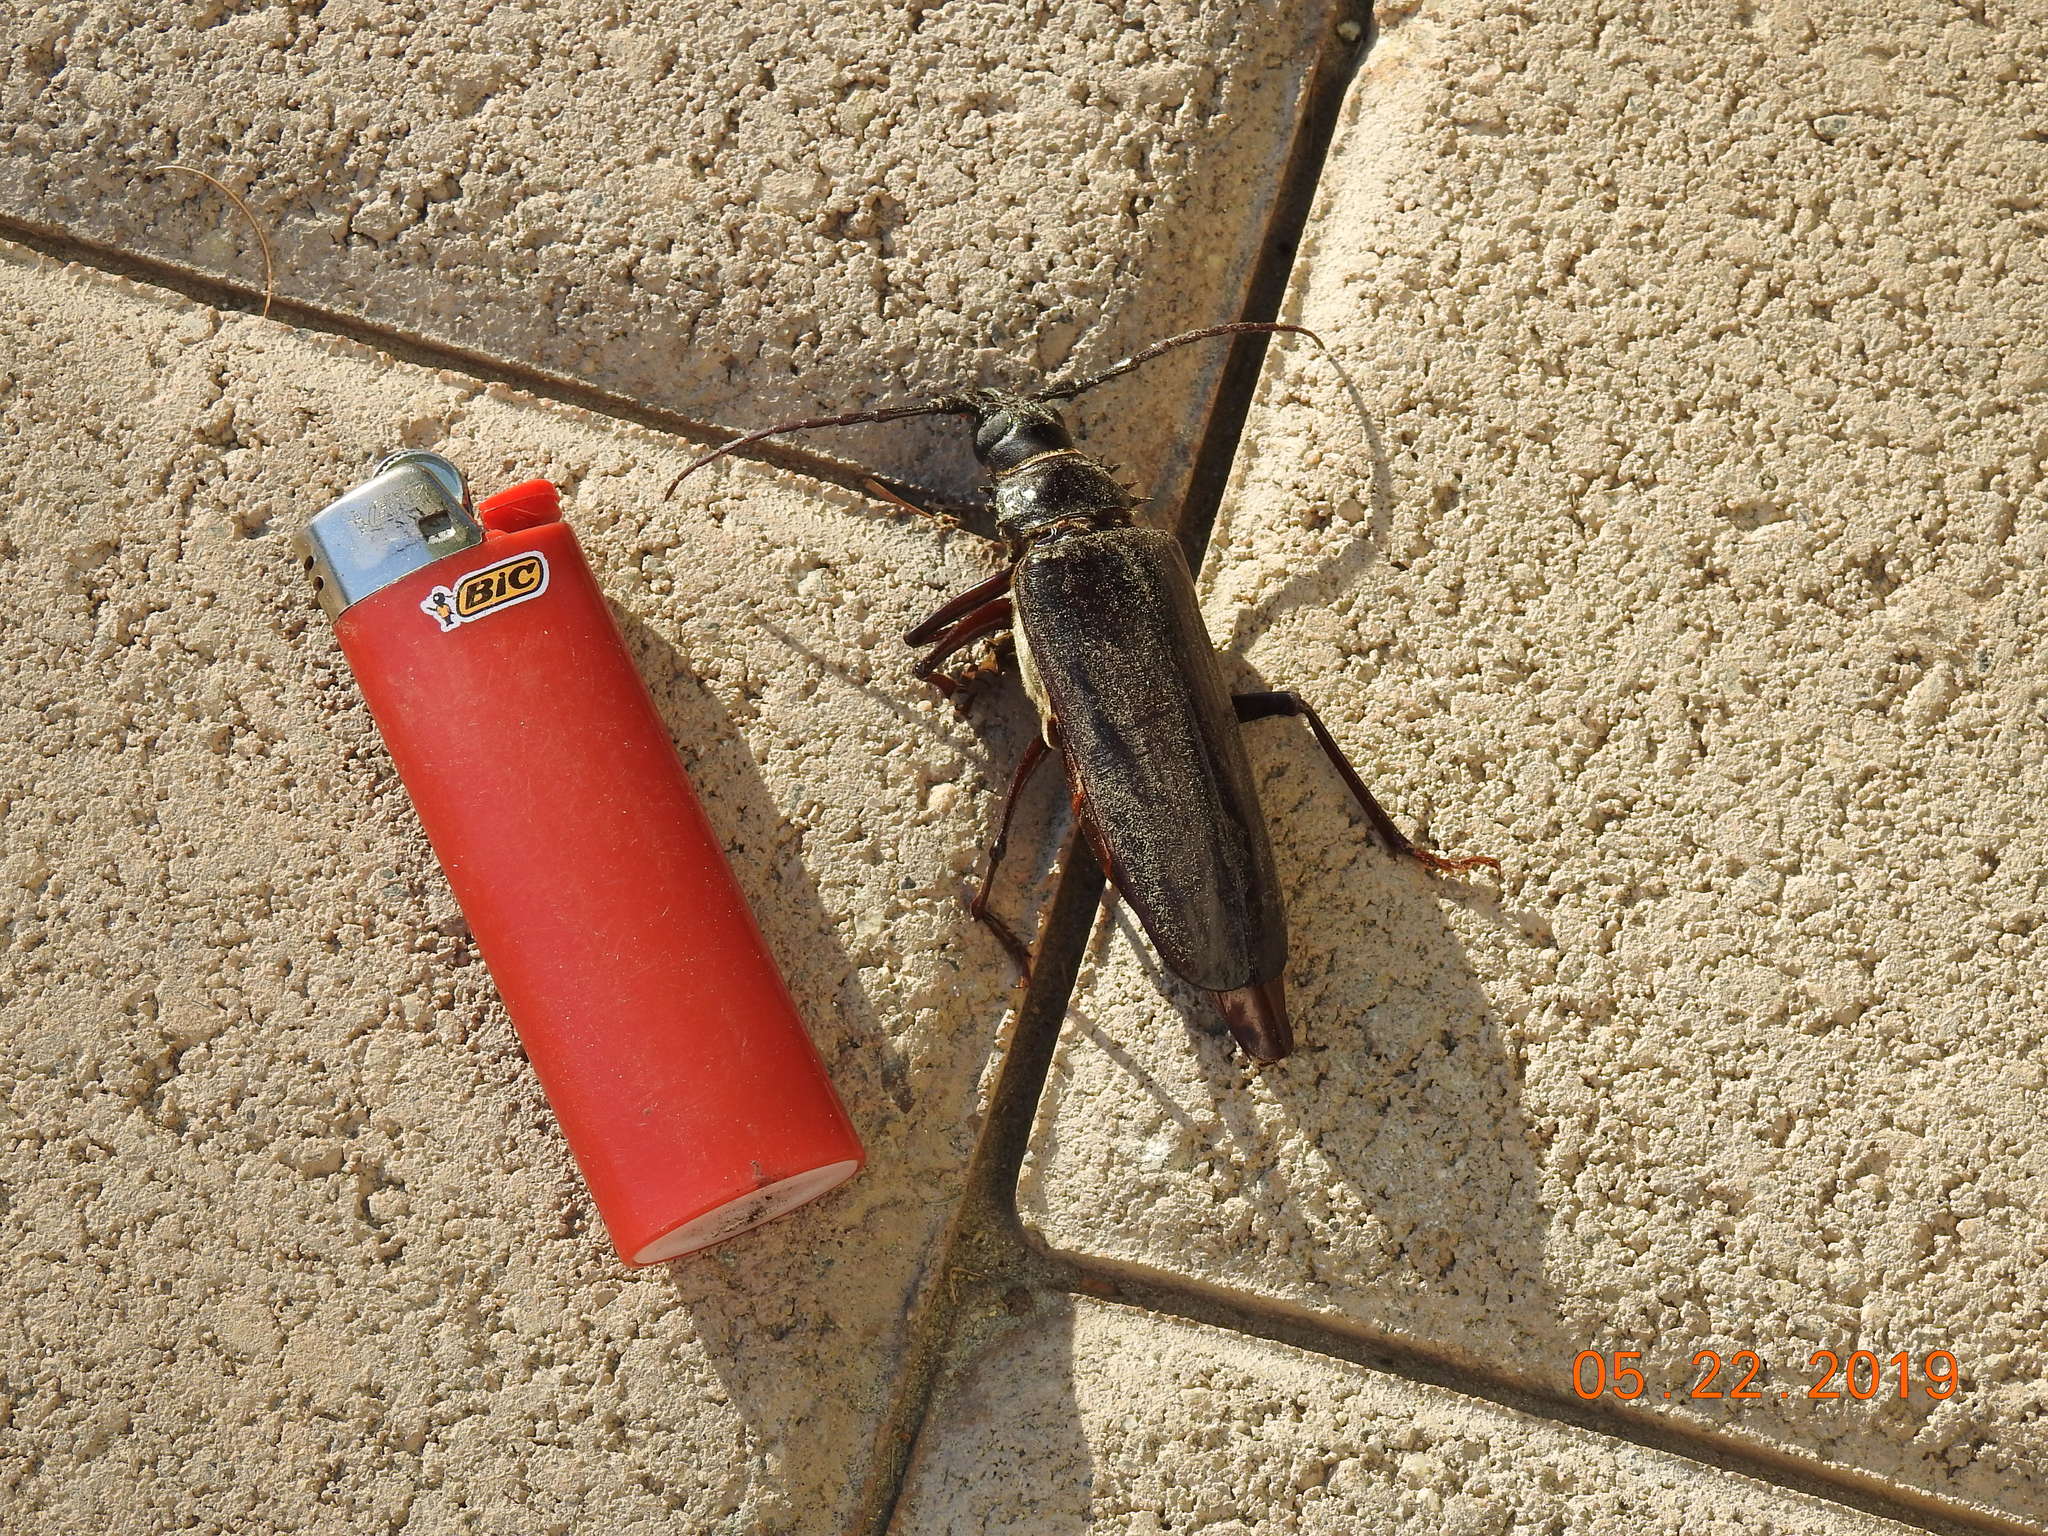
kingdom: Animalia
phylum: Arthropoda
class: Insecta
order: Coleoptera
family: Cerambycidae
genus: Derobrachus
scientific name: Derobrachus geminatus
